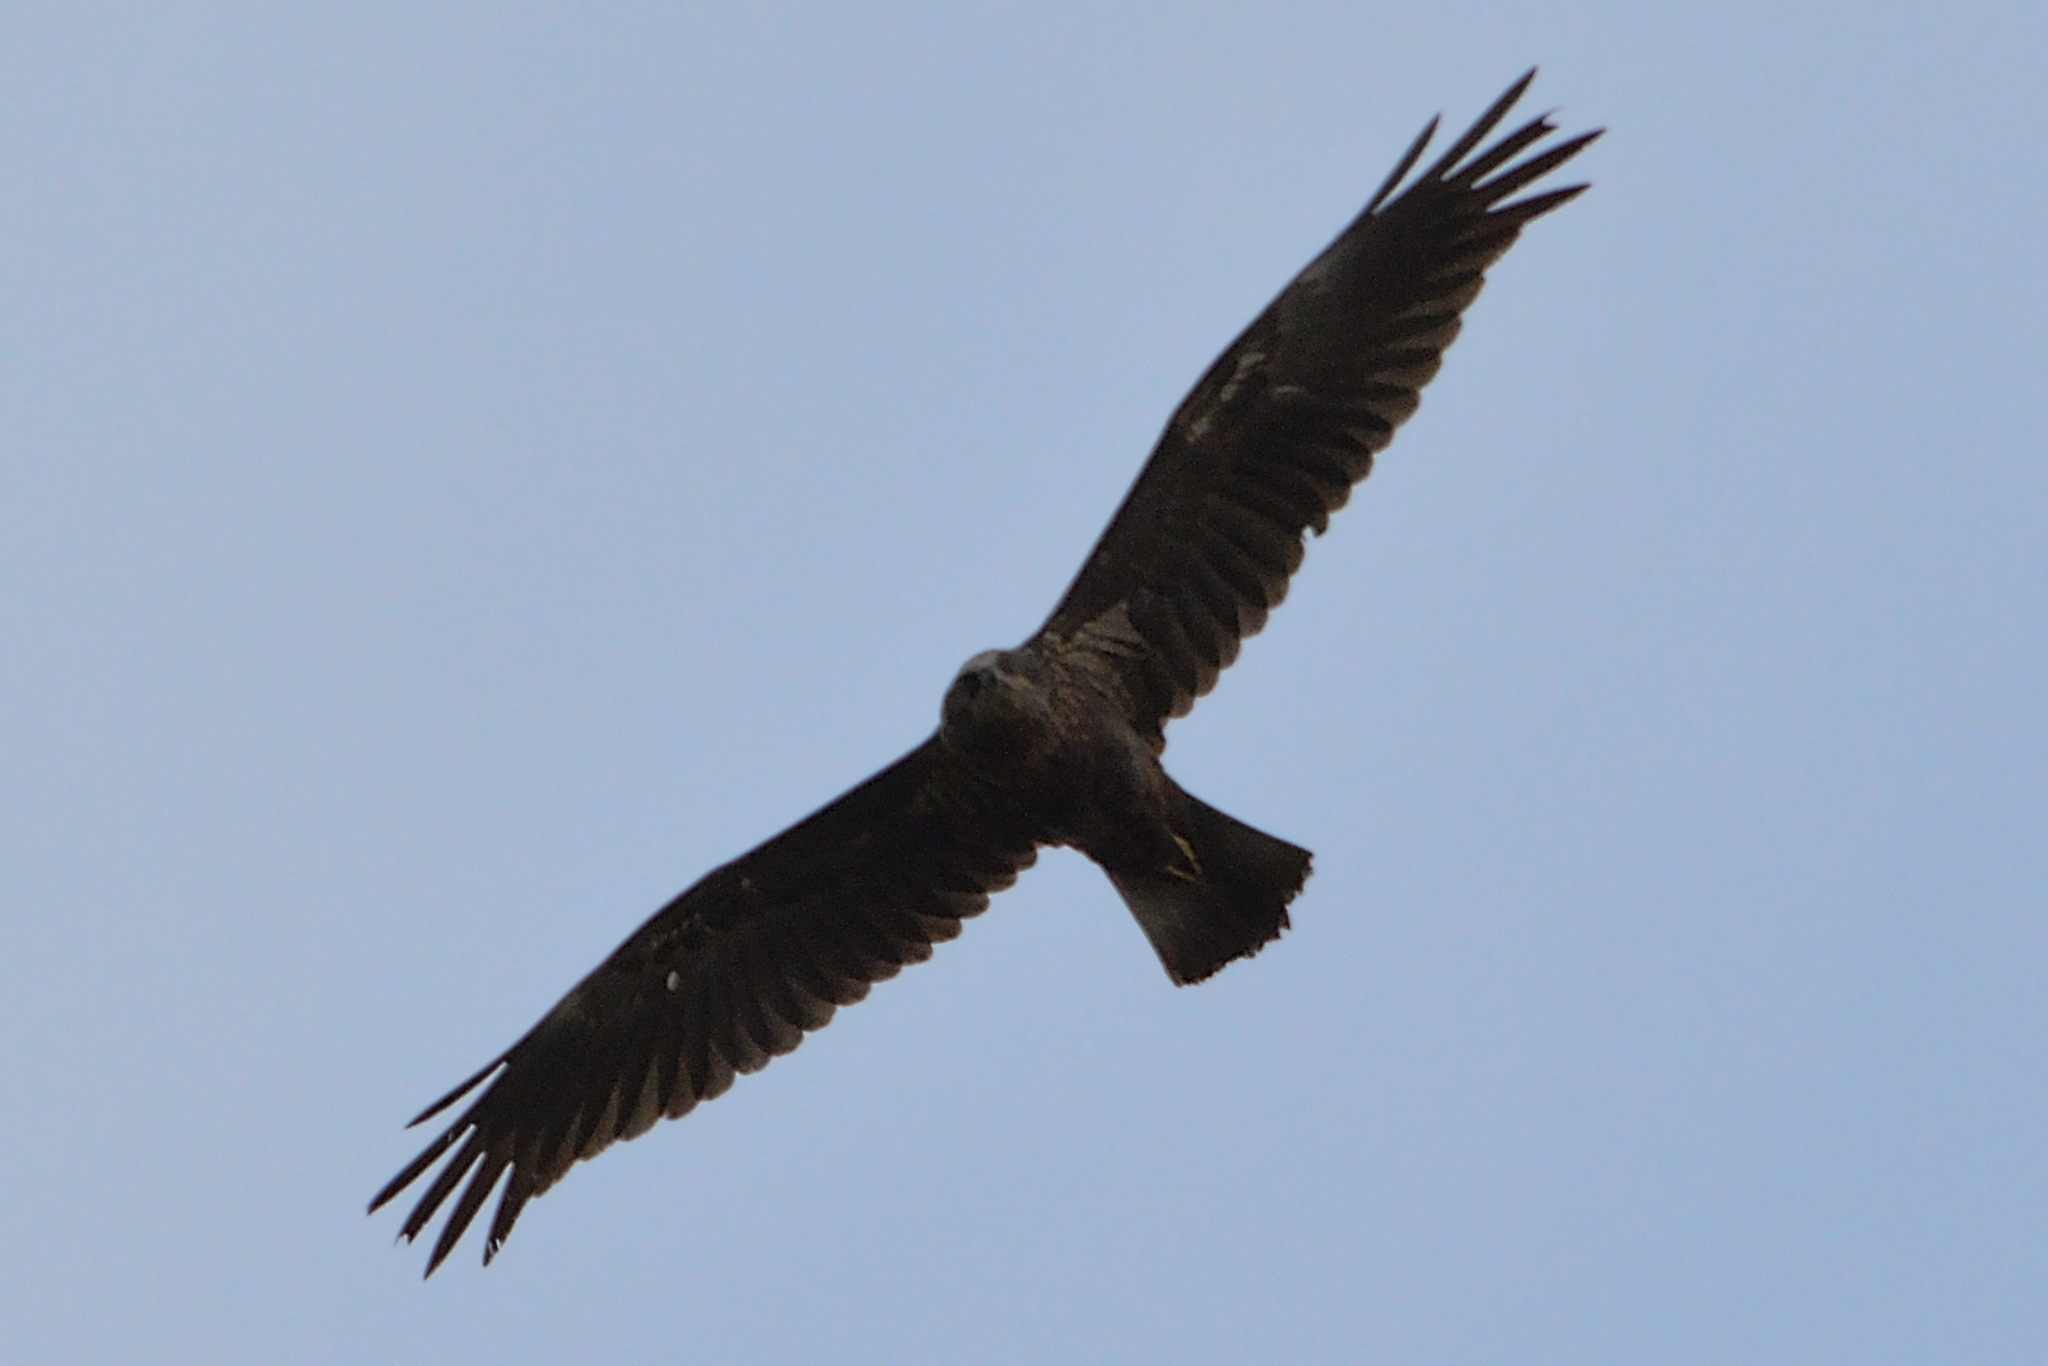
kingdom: Animalia
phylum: Chordata
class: Aves
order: Accipitriformes
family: Accipitridae
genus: Circus
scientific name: Circus aeruginosus
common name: Western marsh harrier
